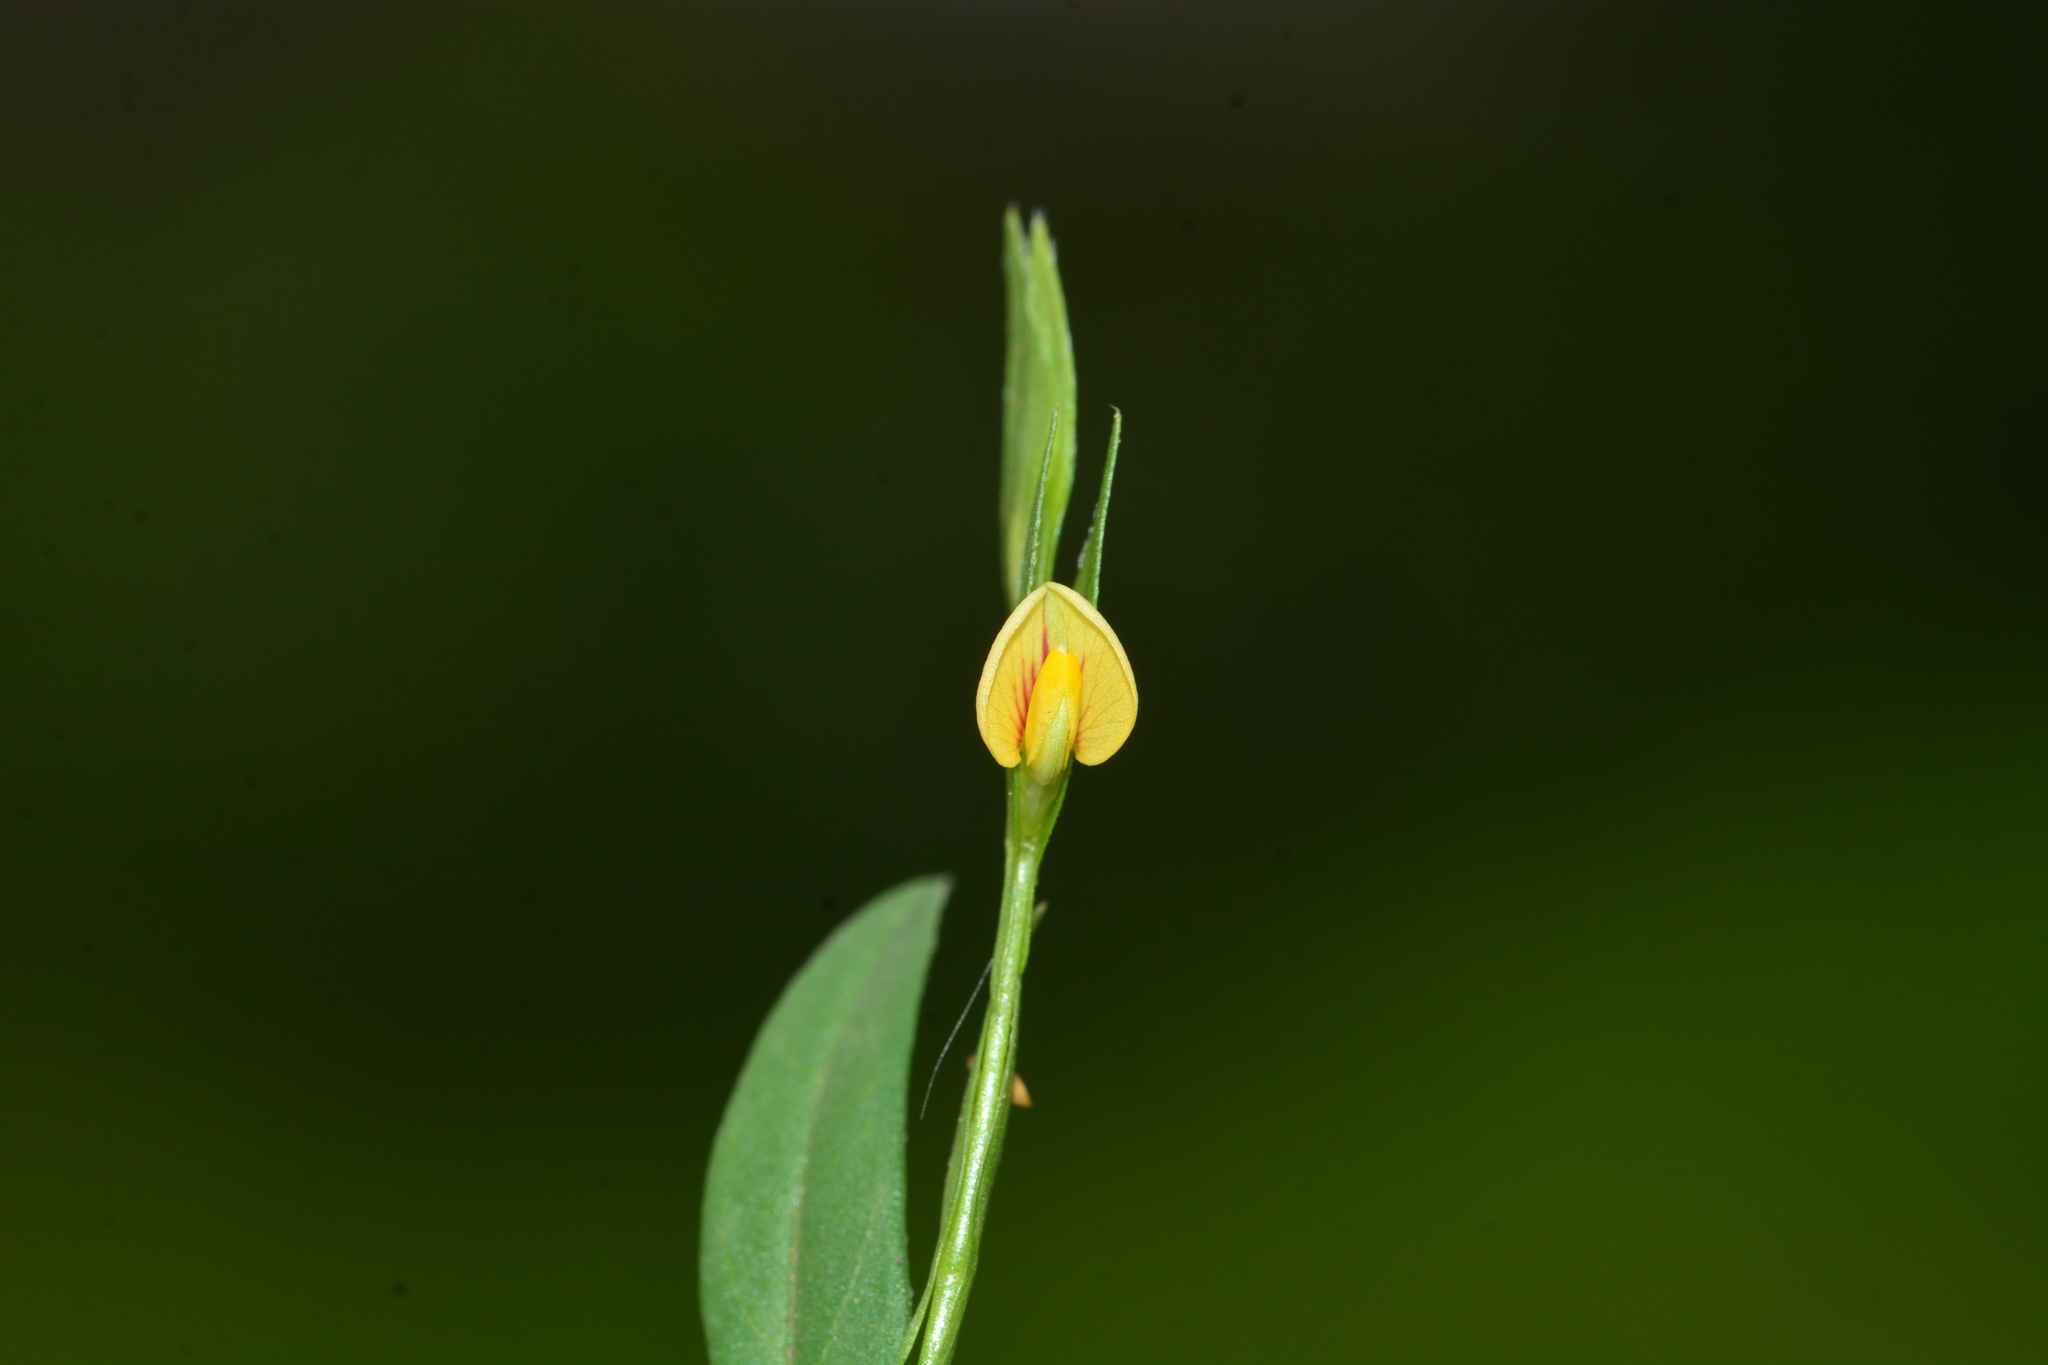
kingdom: Plantae
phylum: Tracheophyta
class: Magnoliopsida
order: Fabales
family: Fabaceae
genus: Zornia
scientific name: Zornia gibbosa
